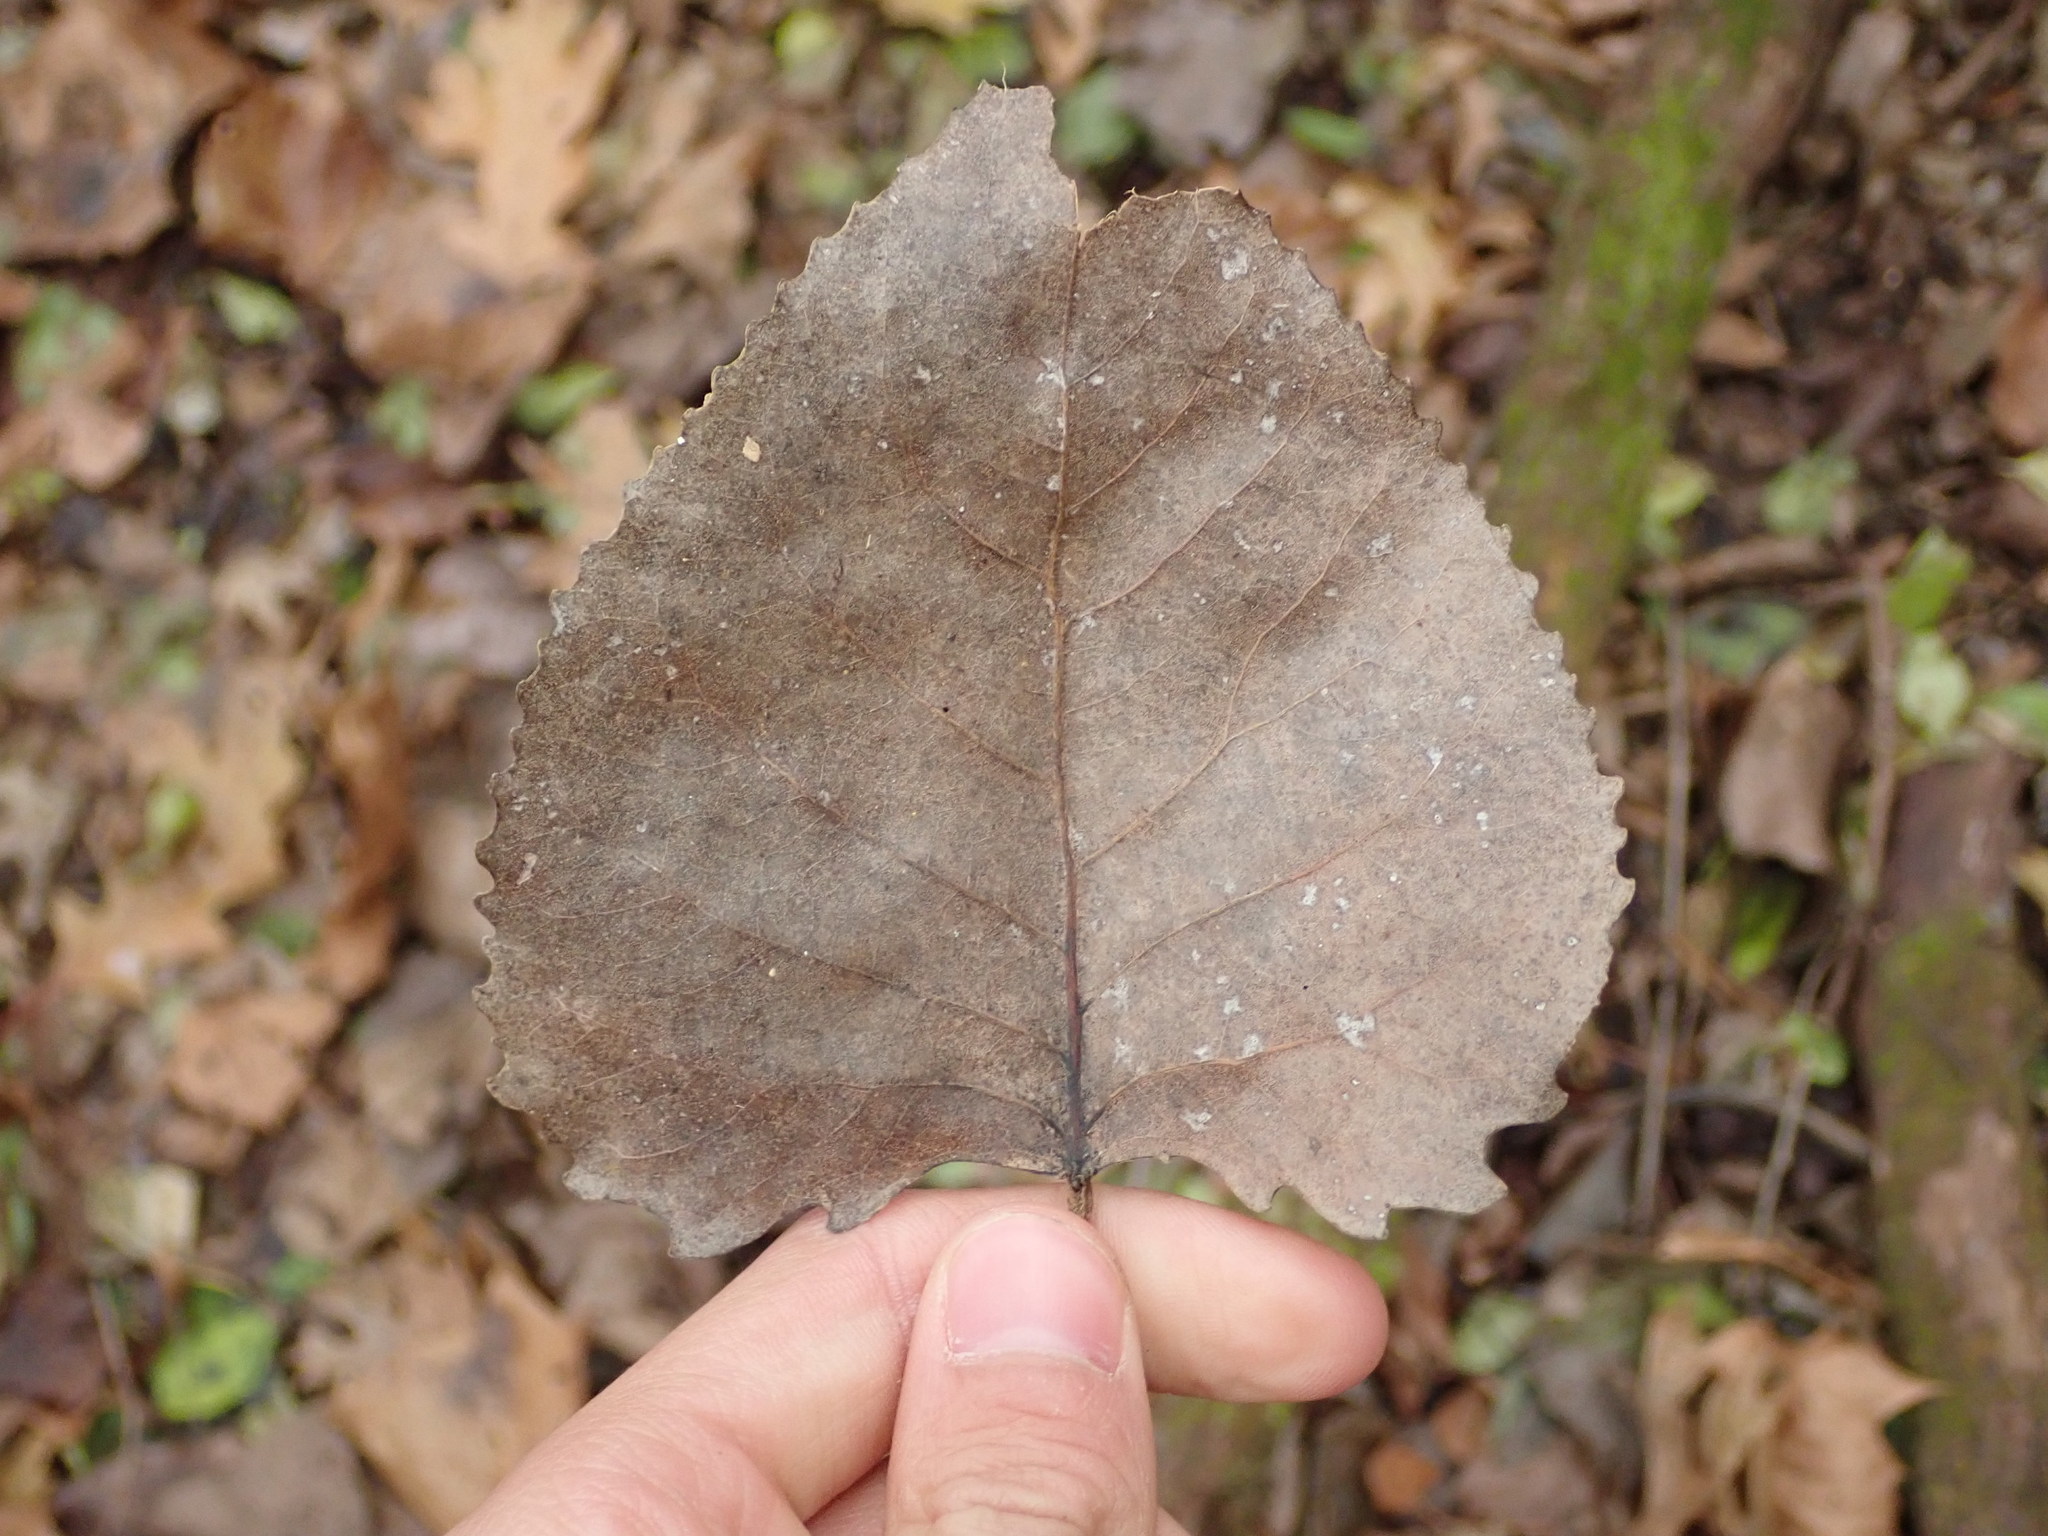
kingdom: Plantae
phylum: Tracheophyta
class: Magnoliopsida
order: Malpighiales
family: Salicaceae
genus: Populus
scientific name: Populus deltoides
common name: Eastern cottonwood
